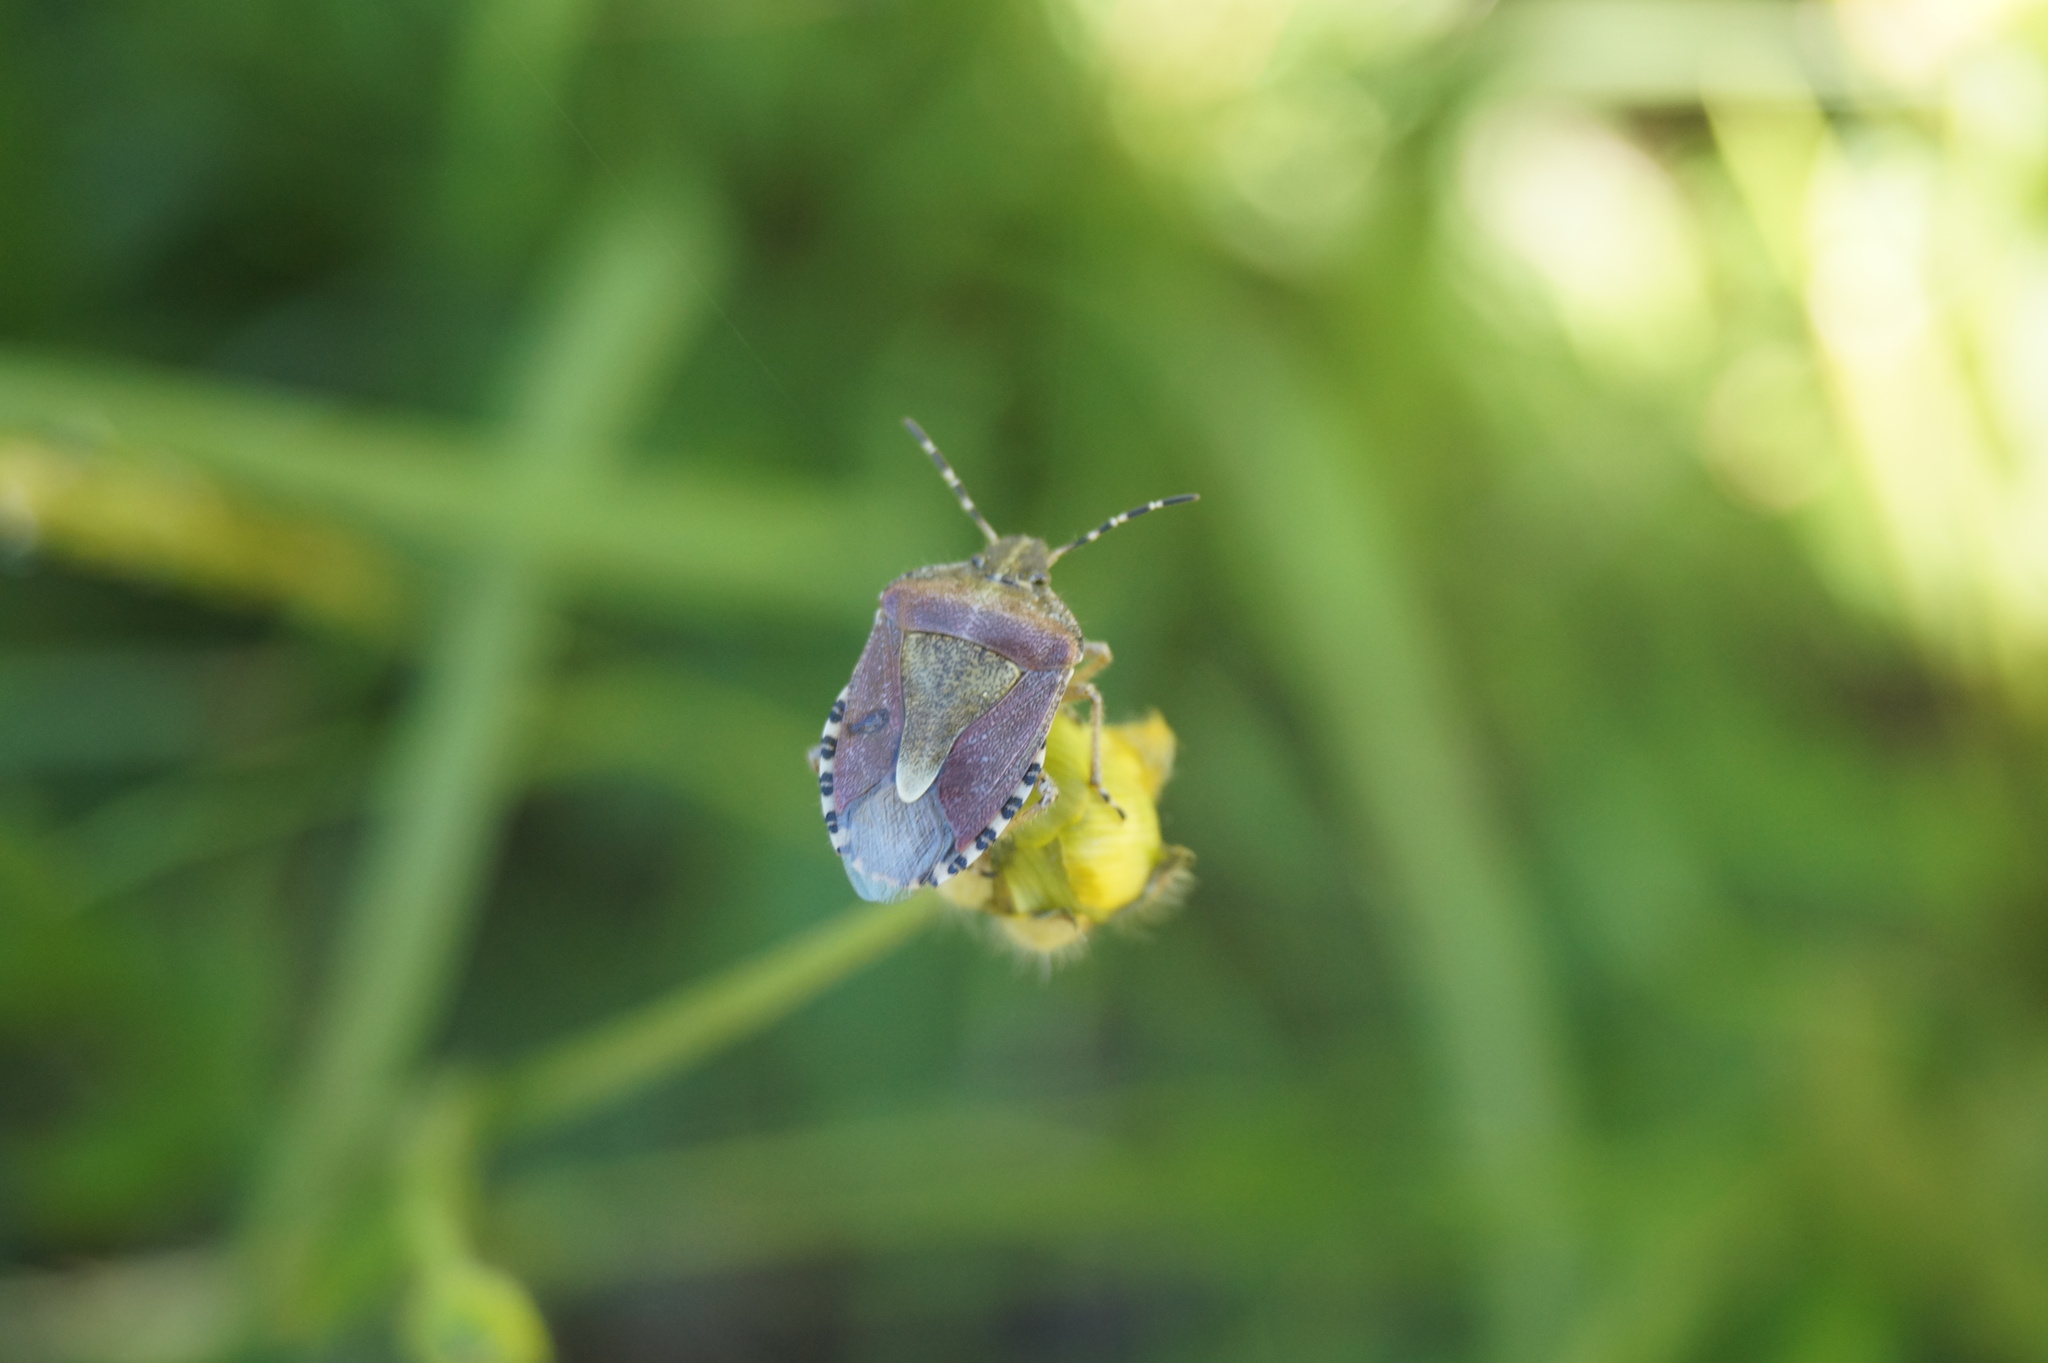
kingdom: Animalia
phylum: Arthropoda
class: Insecta
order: Hemiptera
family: Pentatomidae
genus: Dolycoris
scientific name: Dolycoris baccarum
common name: Sloe bug
